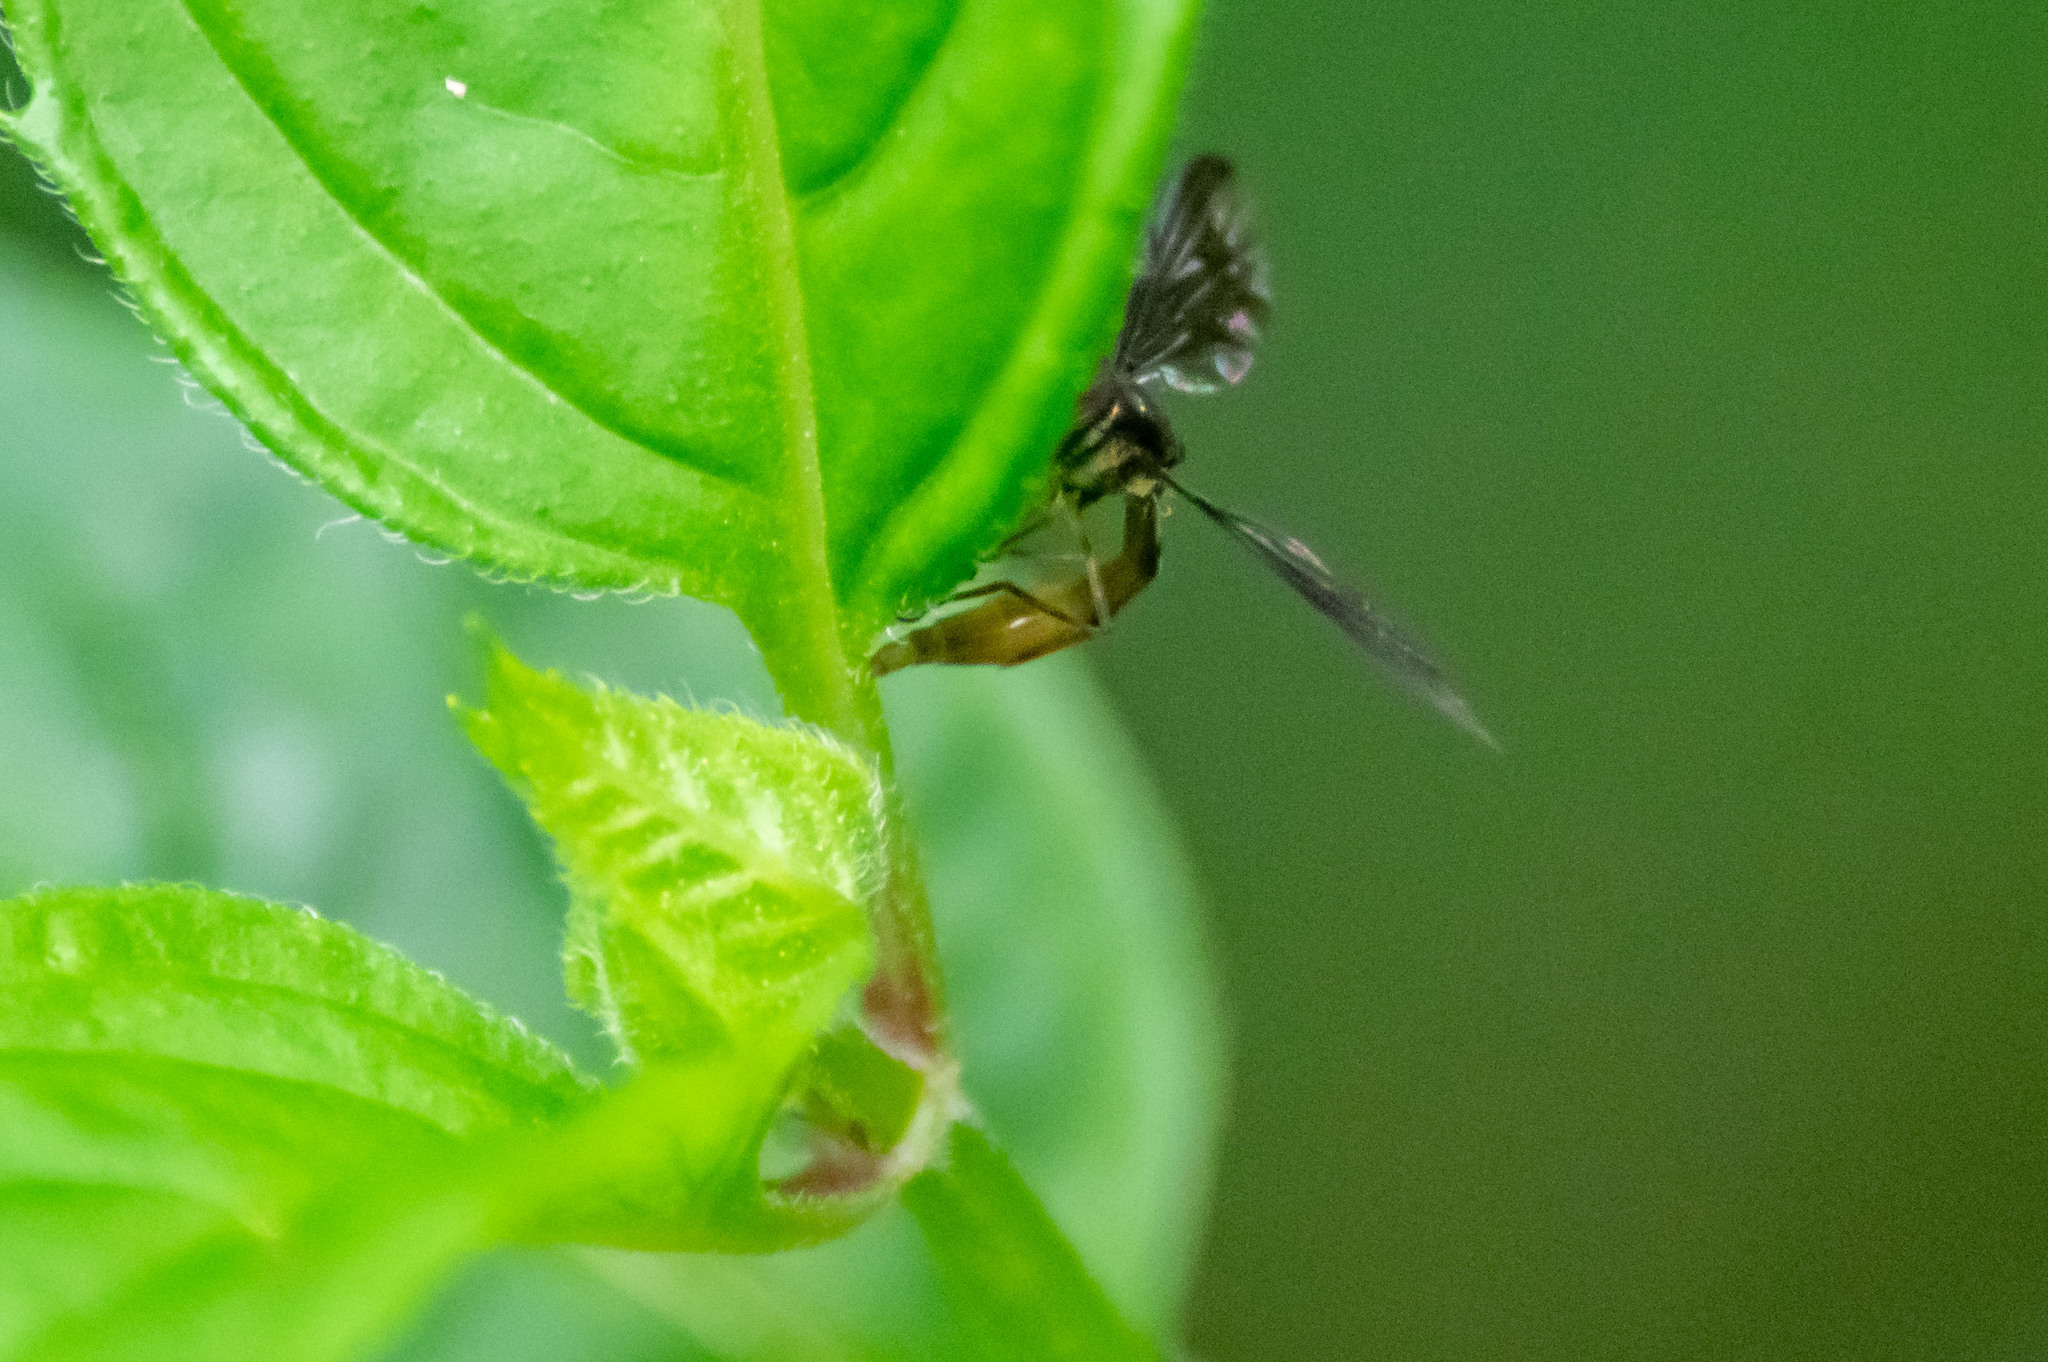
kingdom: Animalia
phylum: Arthropoda
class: Insecta
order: Diptera
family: Syrphidae
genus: Ocyptamus
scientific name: Ocyptamus fuscipennis
